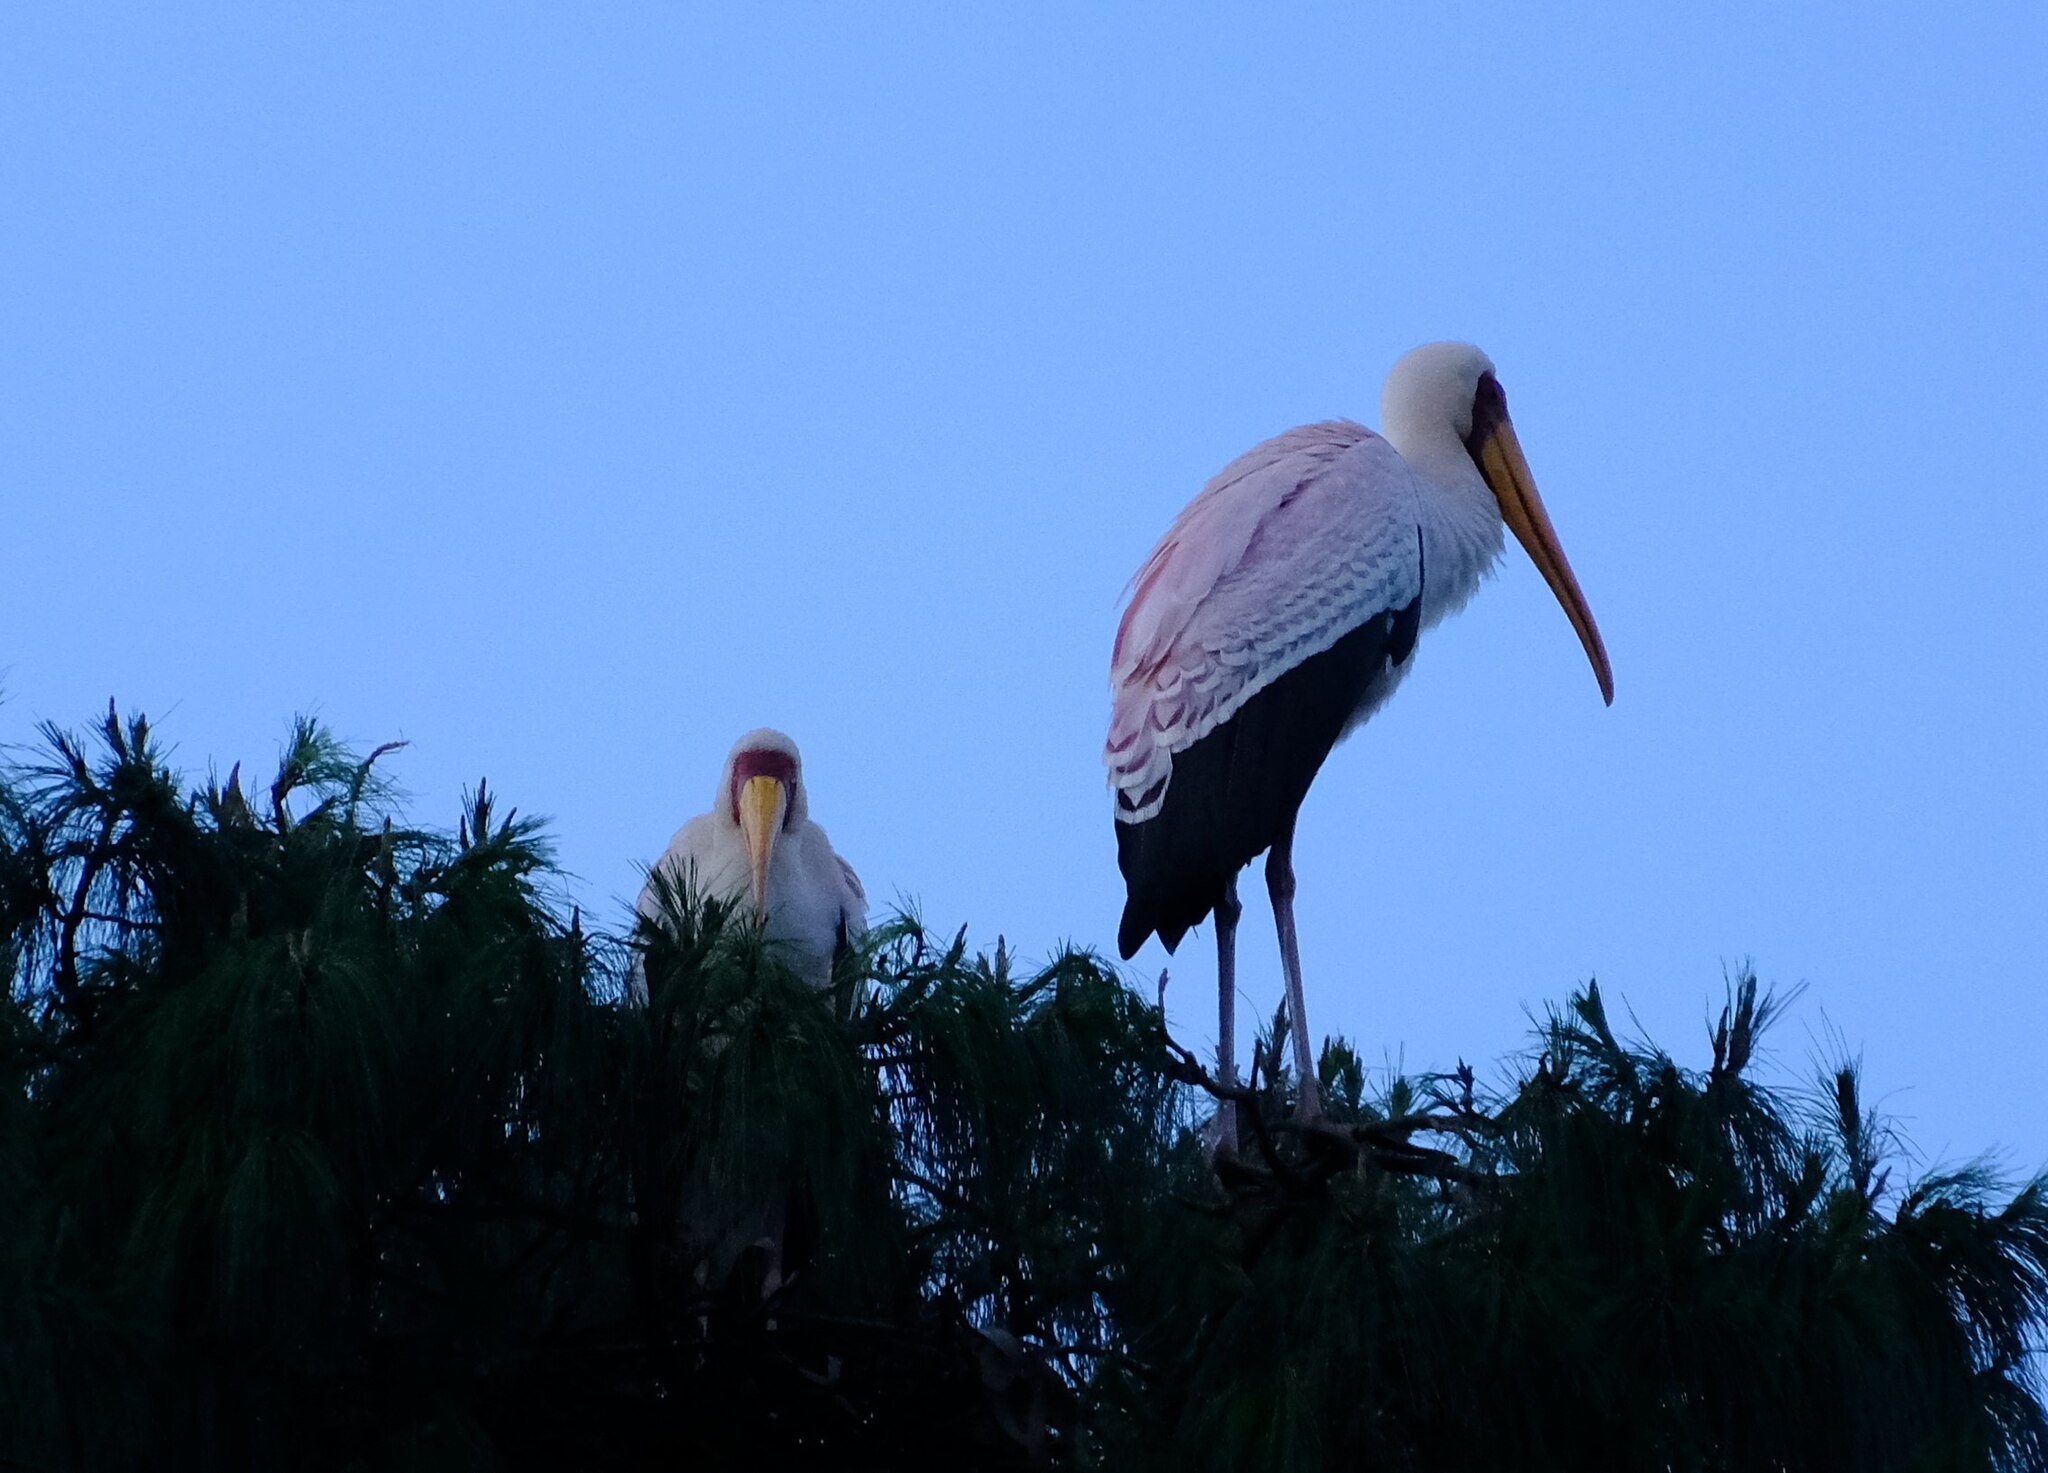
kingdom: Animalia
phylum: Chordata
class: Aves
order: Ciconiiformes
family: Ciconiidae
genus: Mycteria
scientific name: Mycteria ibis
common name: Yellow-billed stork
